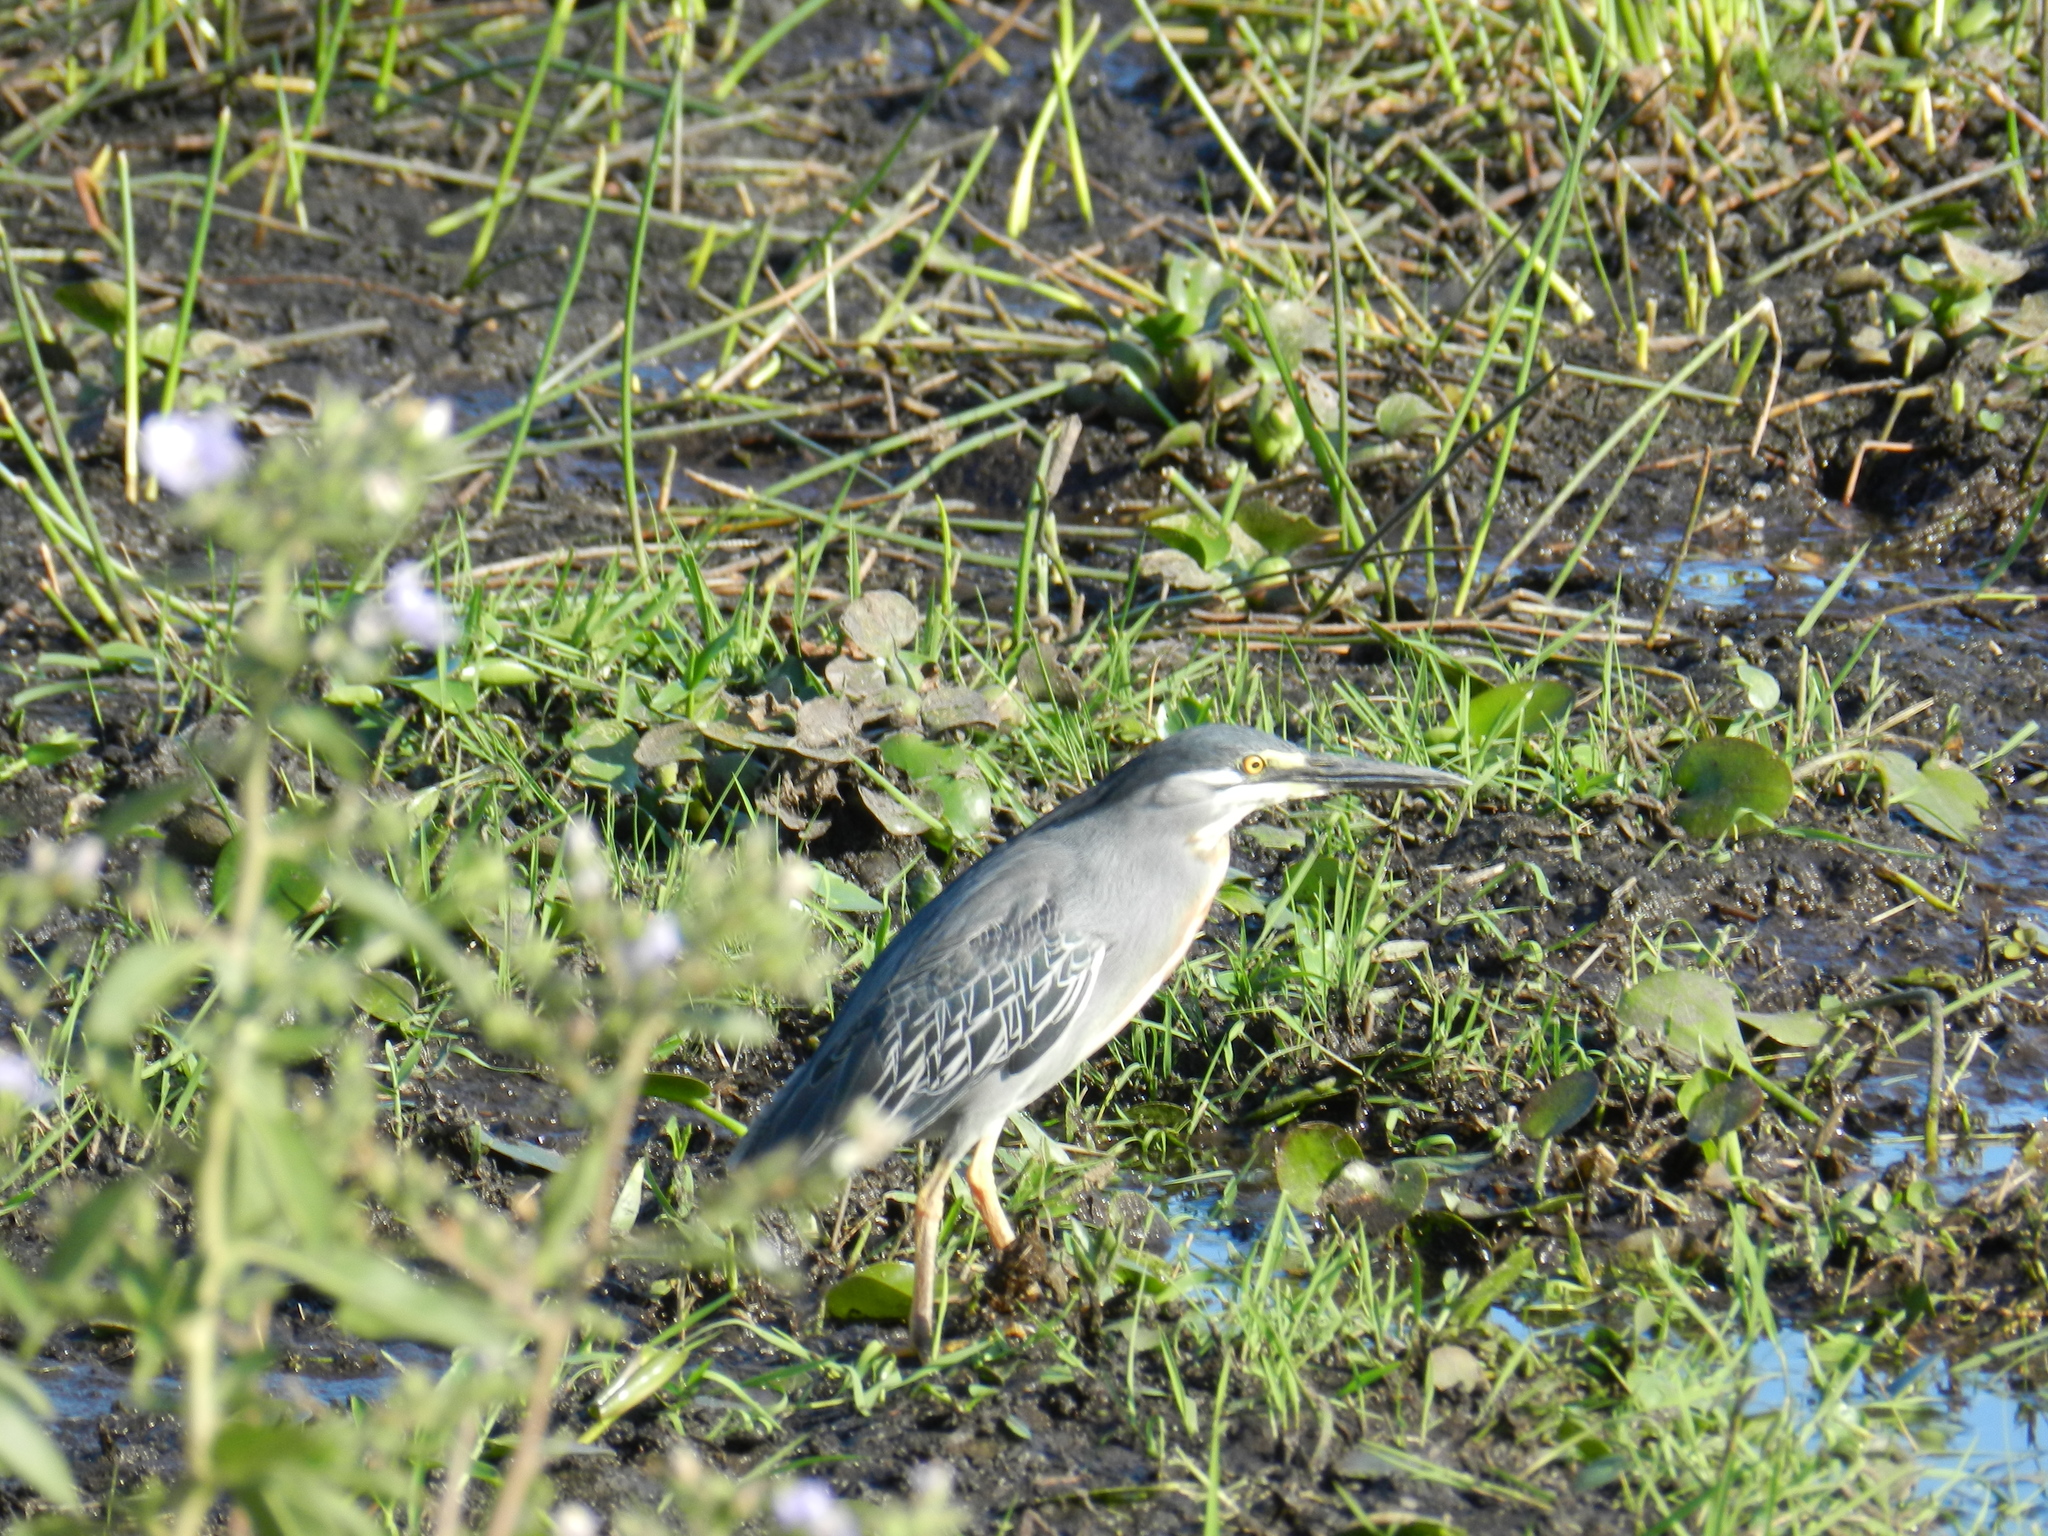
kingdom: Animalia
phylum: Chordata
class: Aves
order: Pelecaniformes
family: Ardeidae
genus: Butorides
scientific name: Butorides striata
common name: Striated heron
